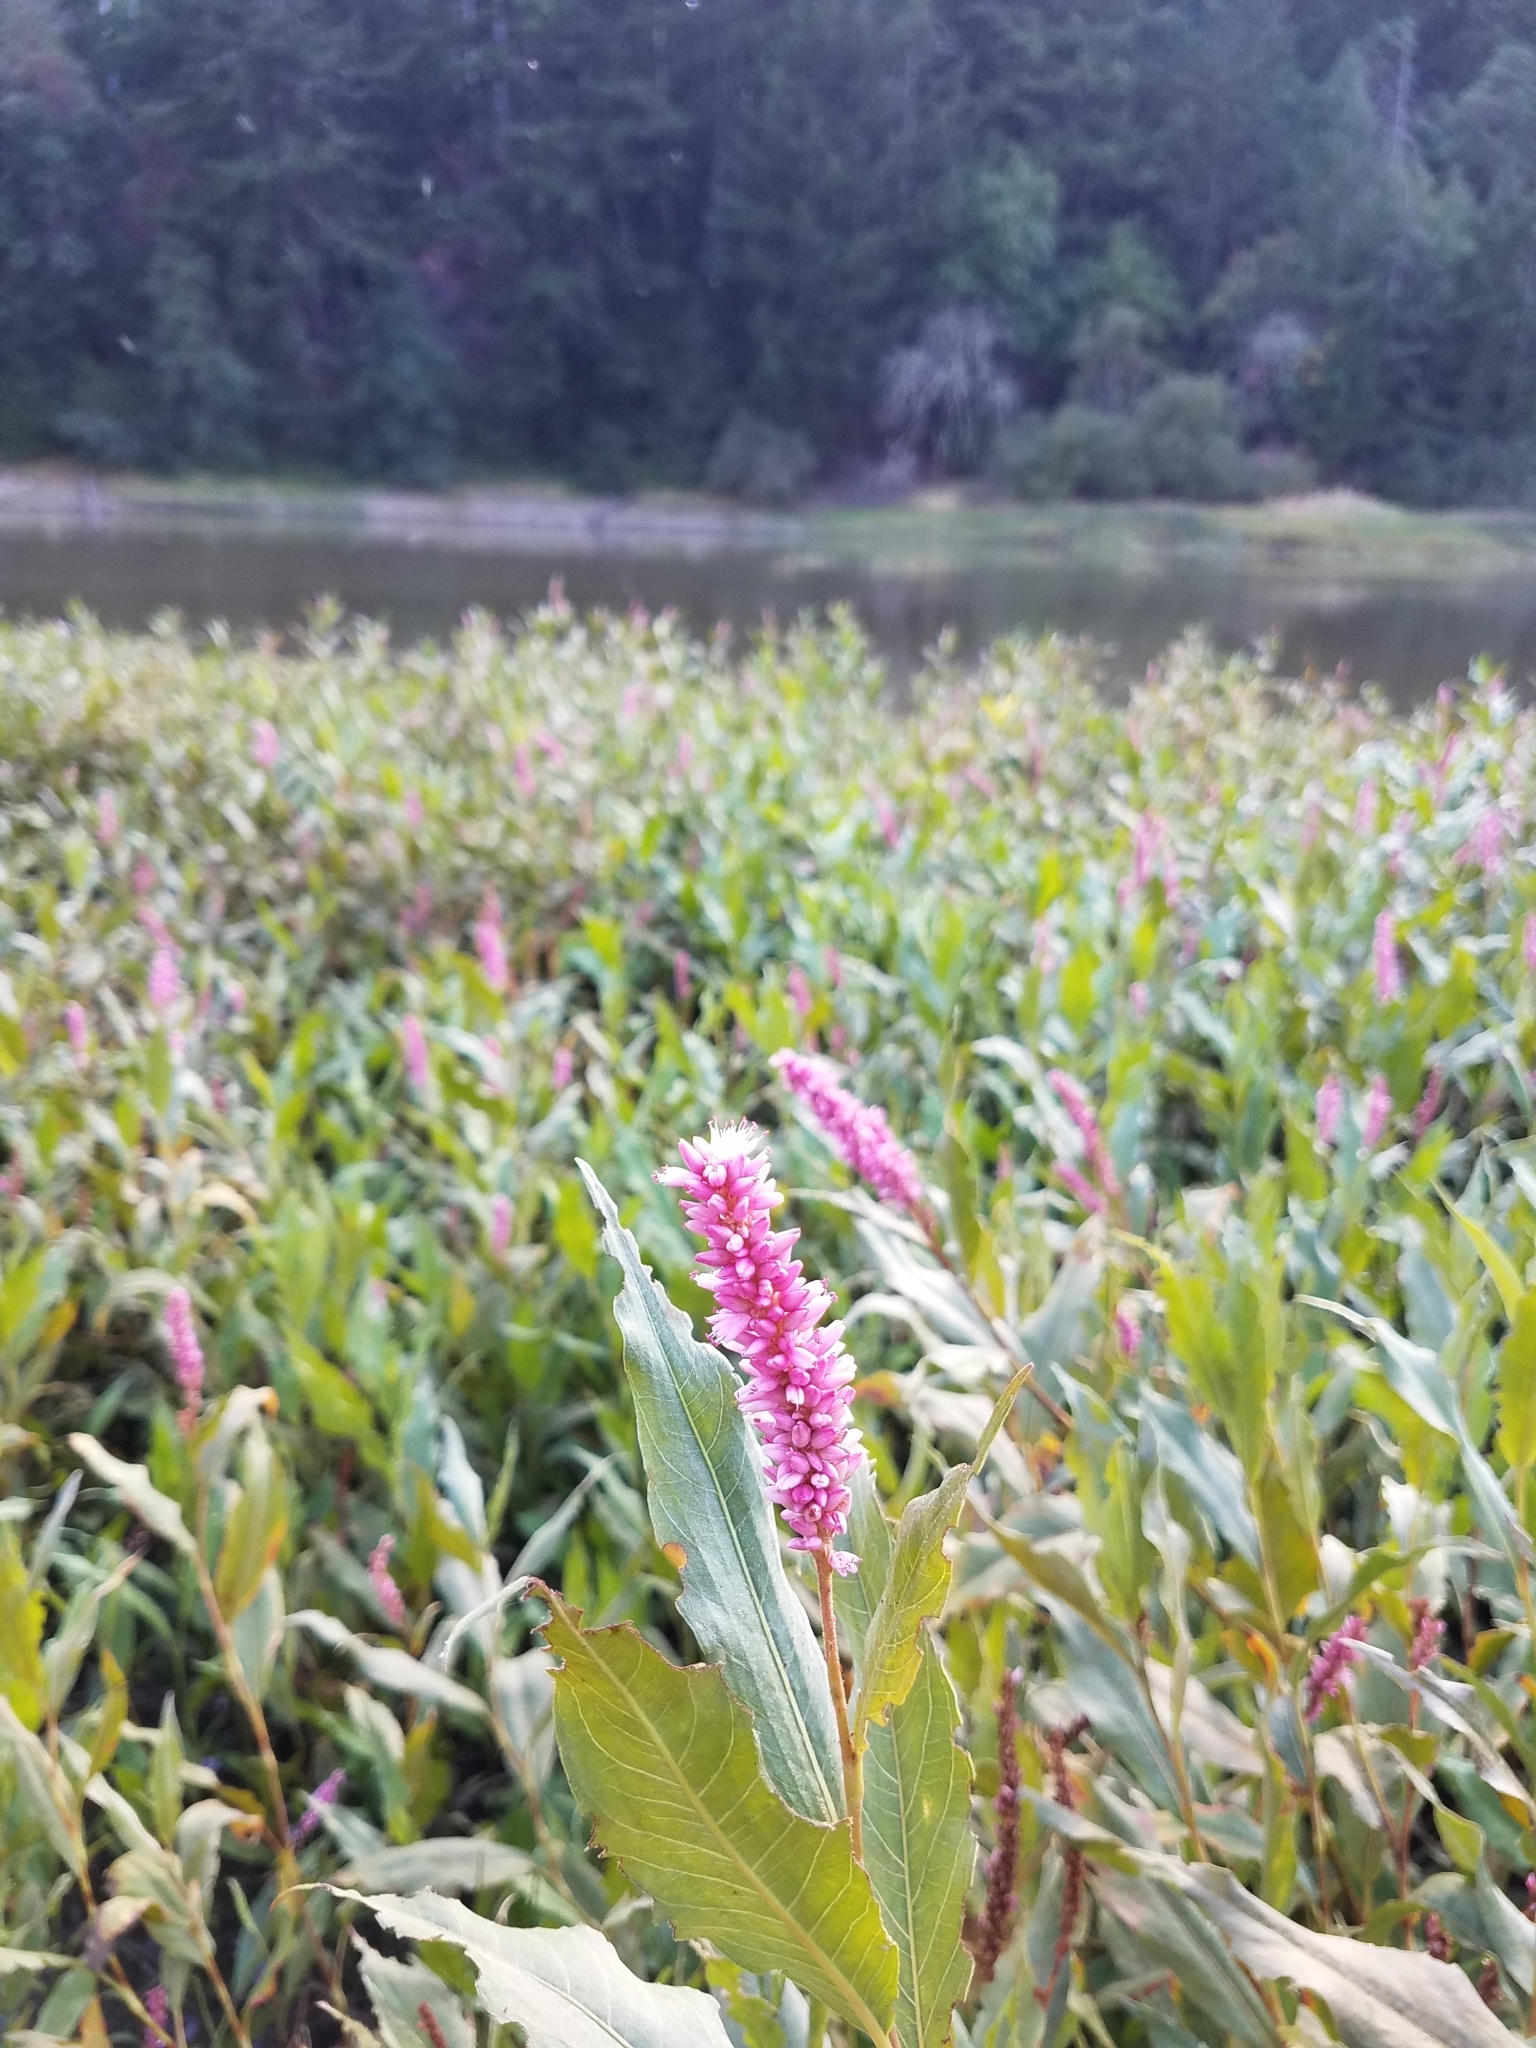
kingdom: Plantae
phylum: Tracheophyta
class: Magnoliopsida
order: Caryophyllales
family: Polygonaceae
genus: Persicaria
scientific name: Persicaria amphibia
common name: Amphibious bistort
